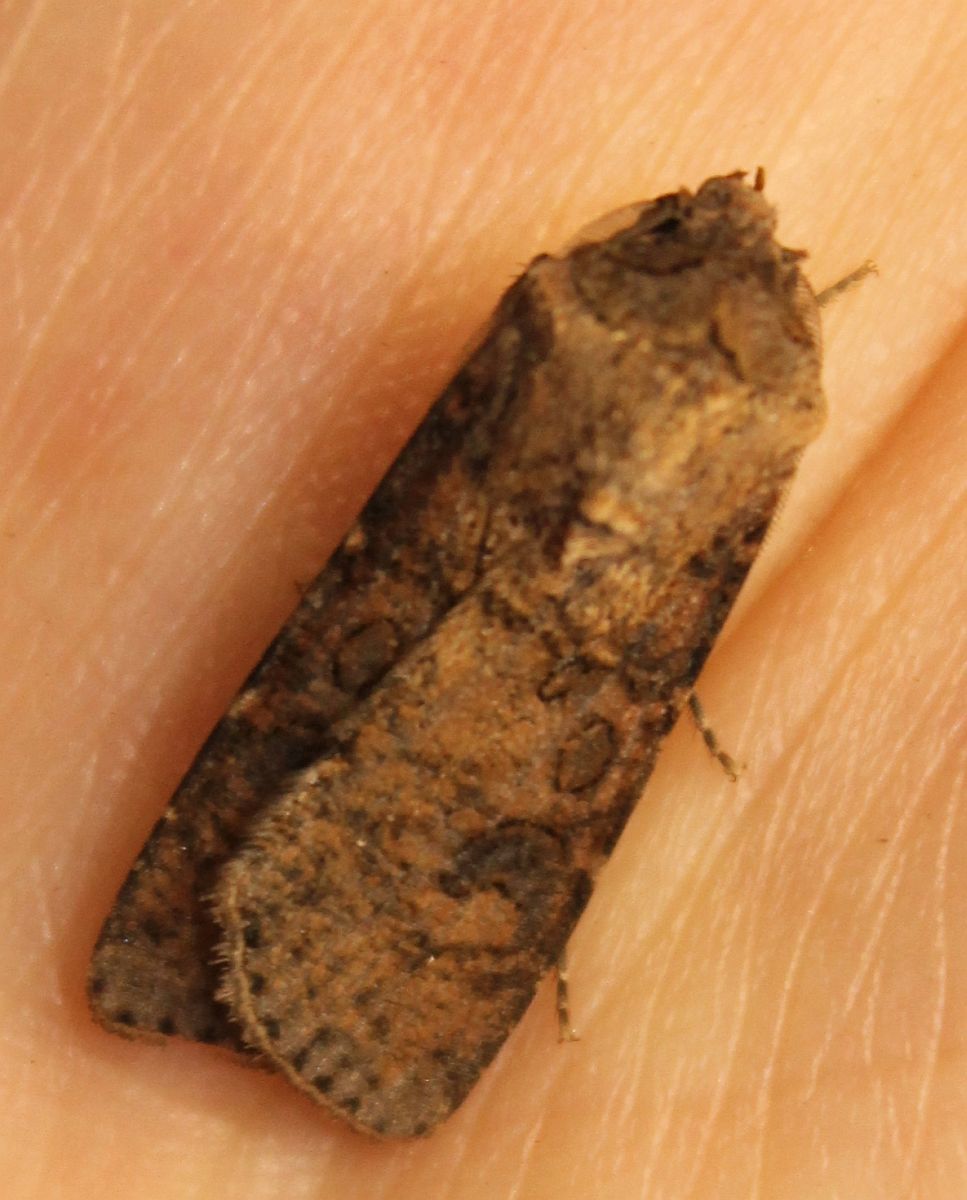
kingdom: Animalia
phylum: Arthropoda
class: Insecta
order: Lepidoptera
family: Noctuidae
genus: Agrotis
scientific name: Agrotis segetum
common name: Turnip moth
